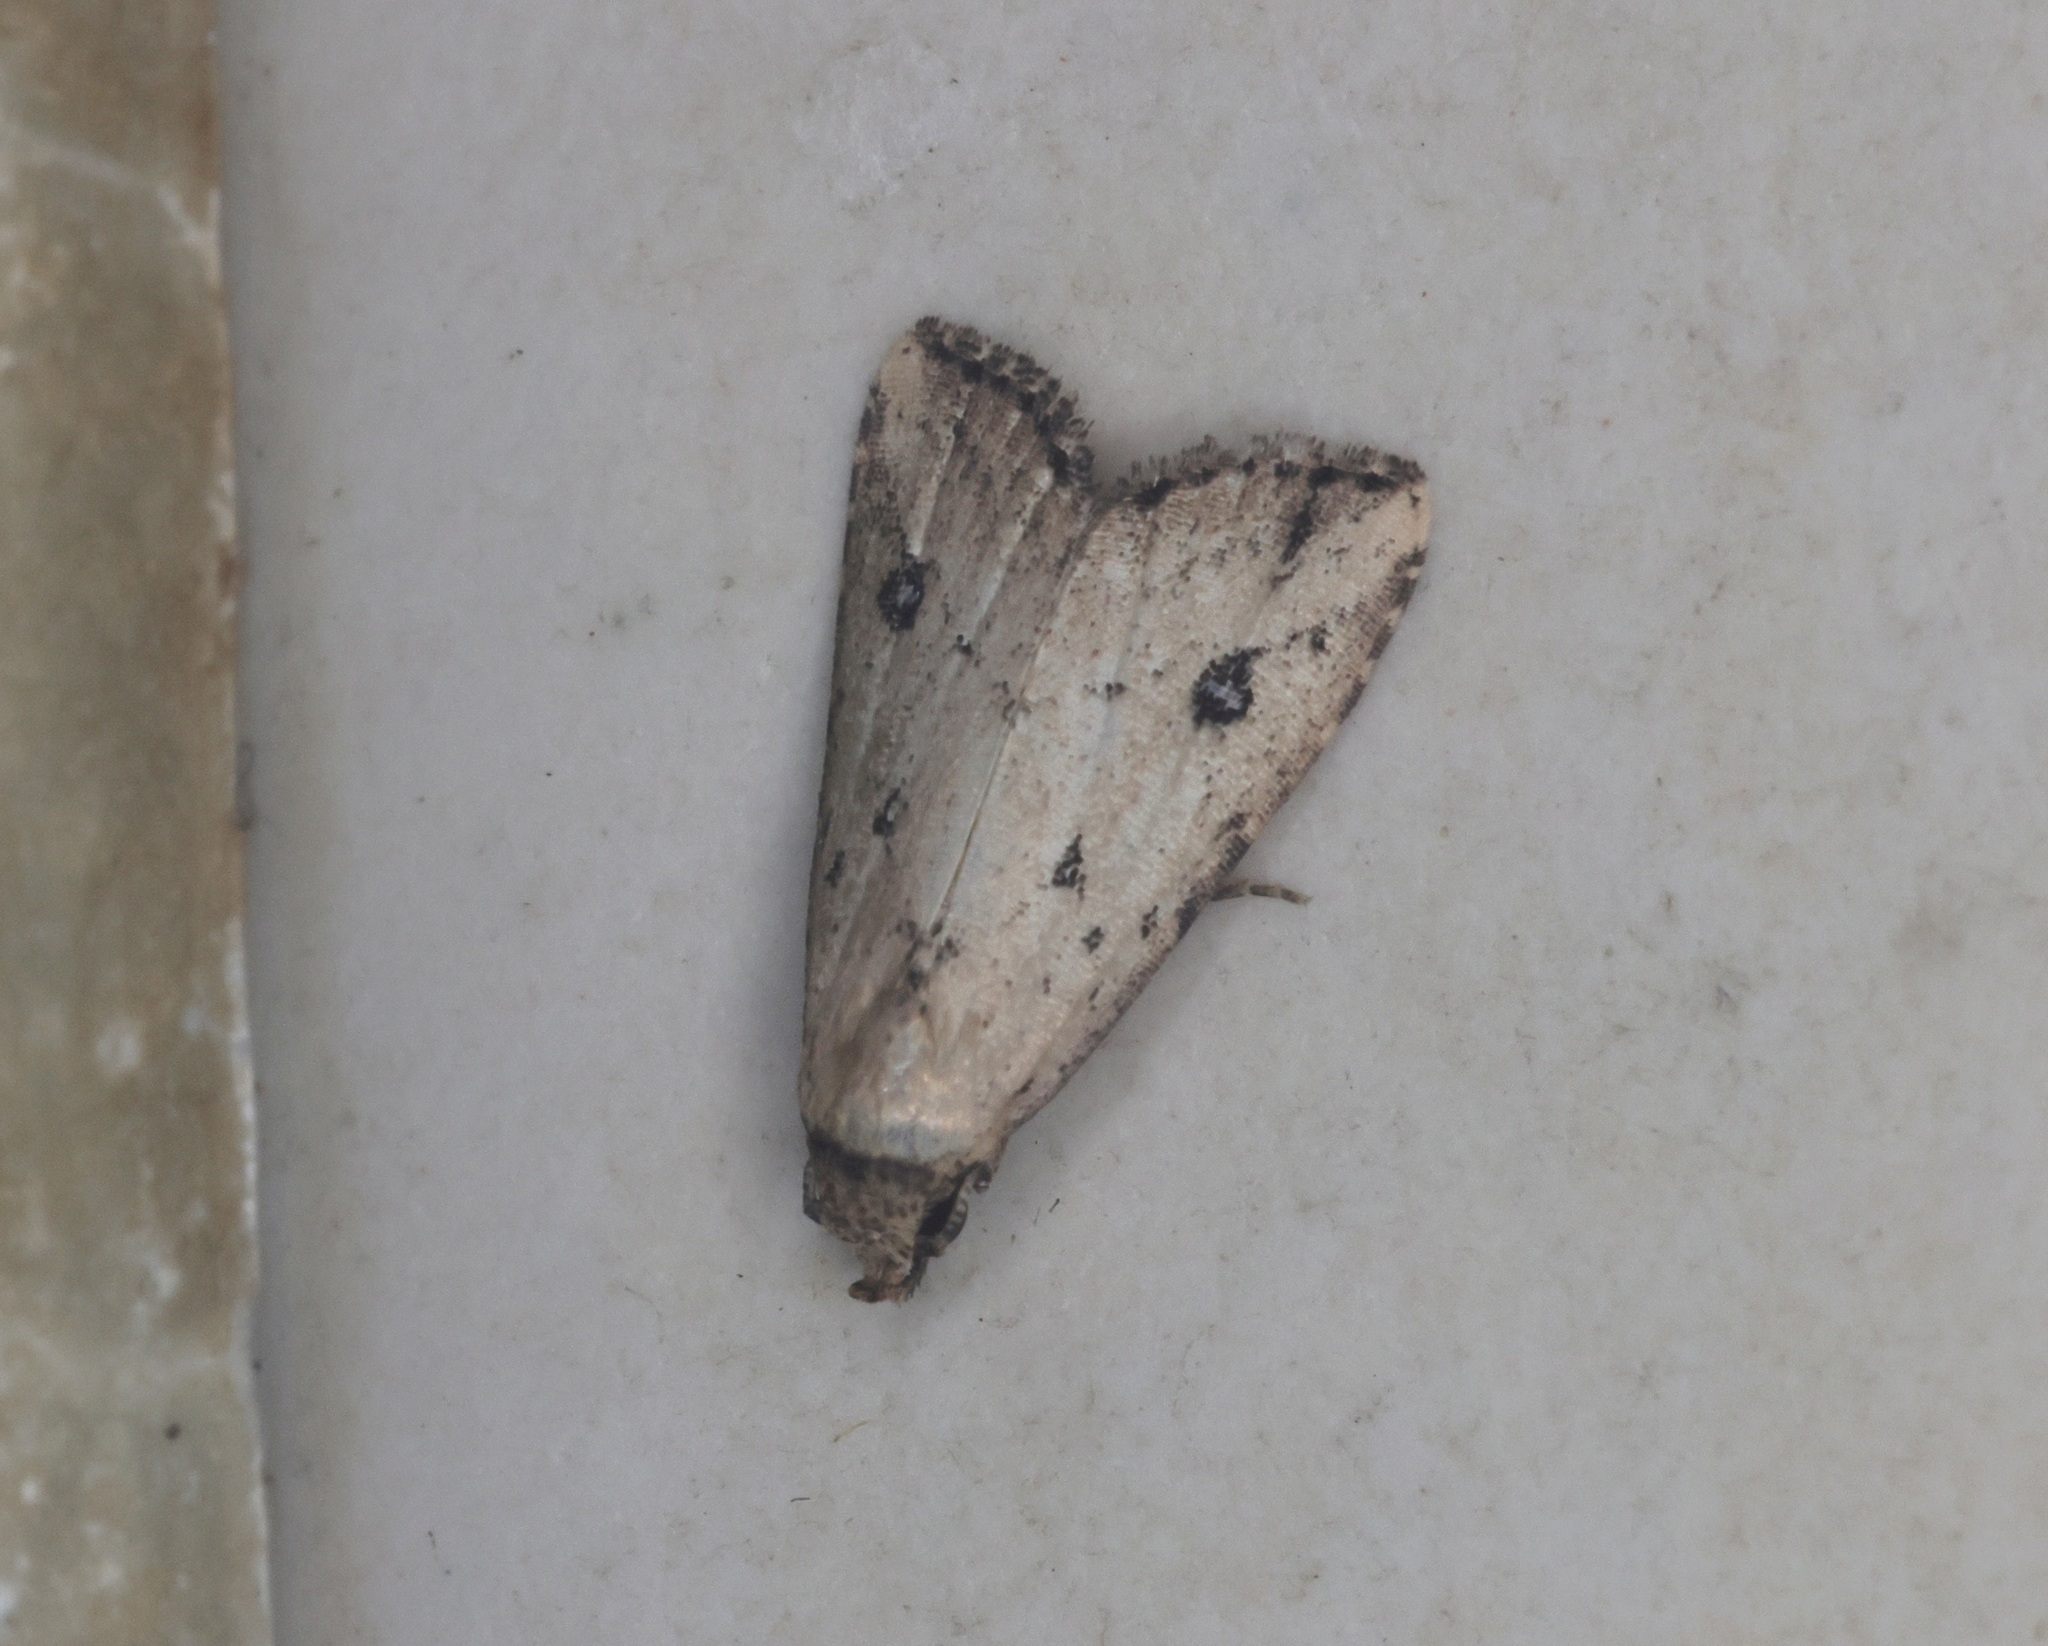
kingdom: Animalia
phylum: Arthropoda
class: Insecta
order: Lepidoptera
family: Erebidae
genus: Luceria
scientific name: Luceria oculalis
